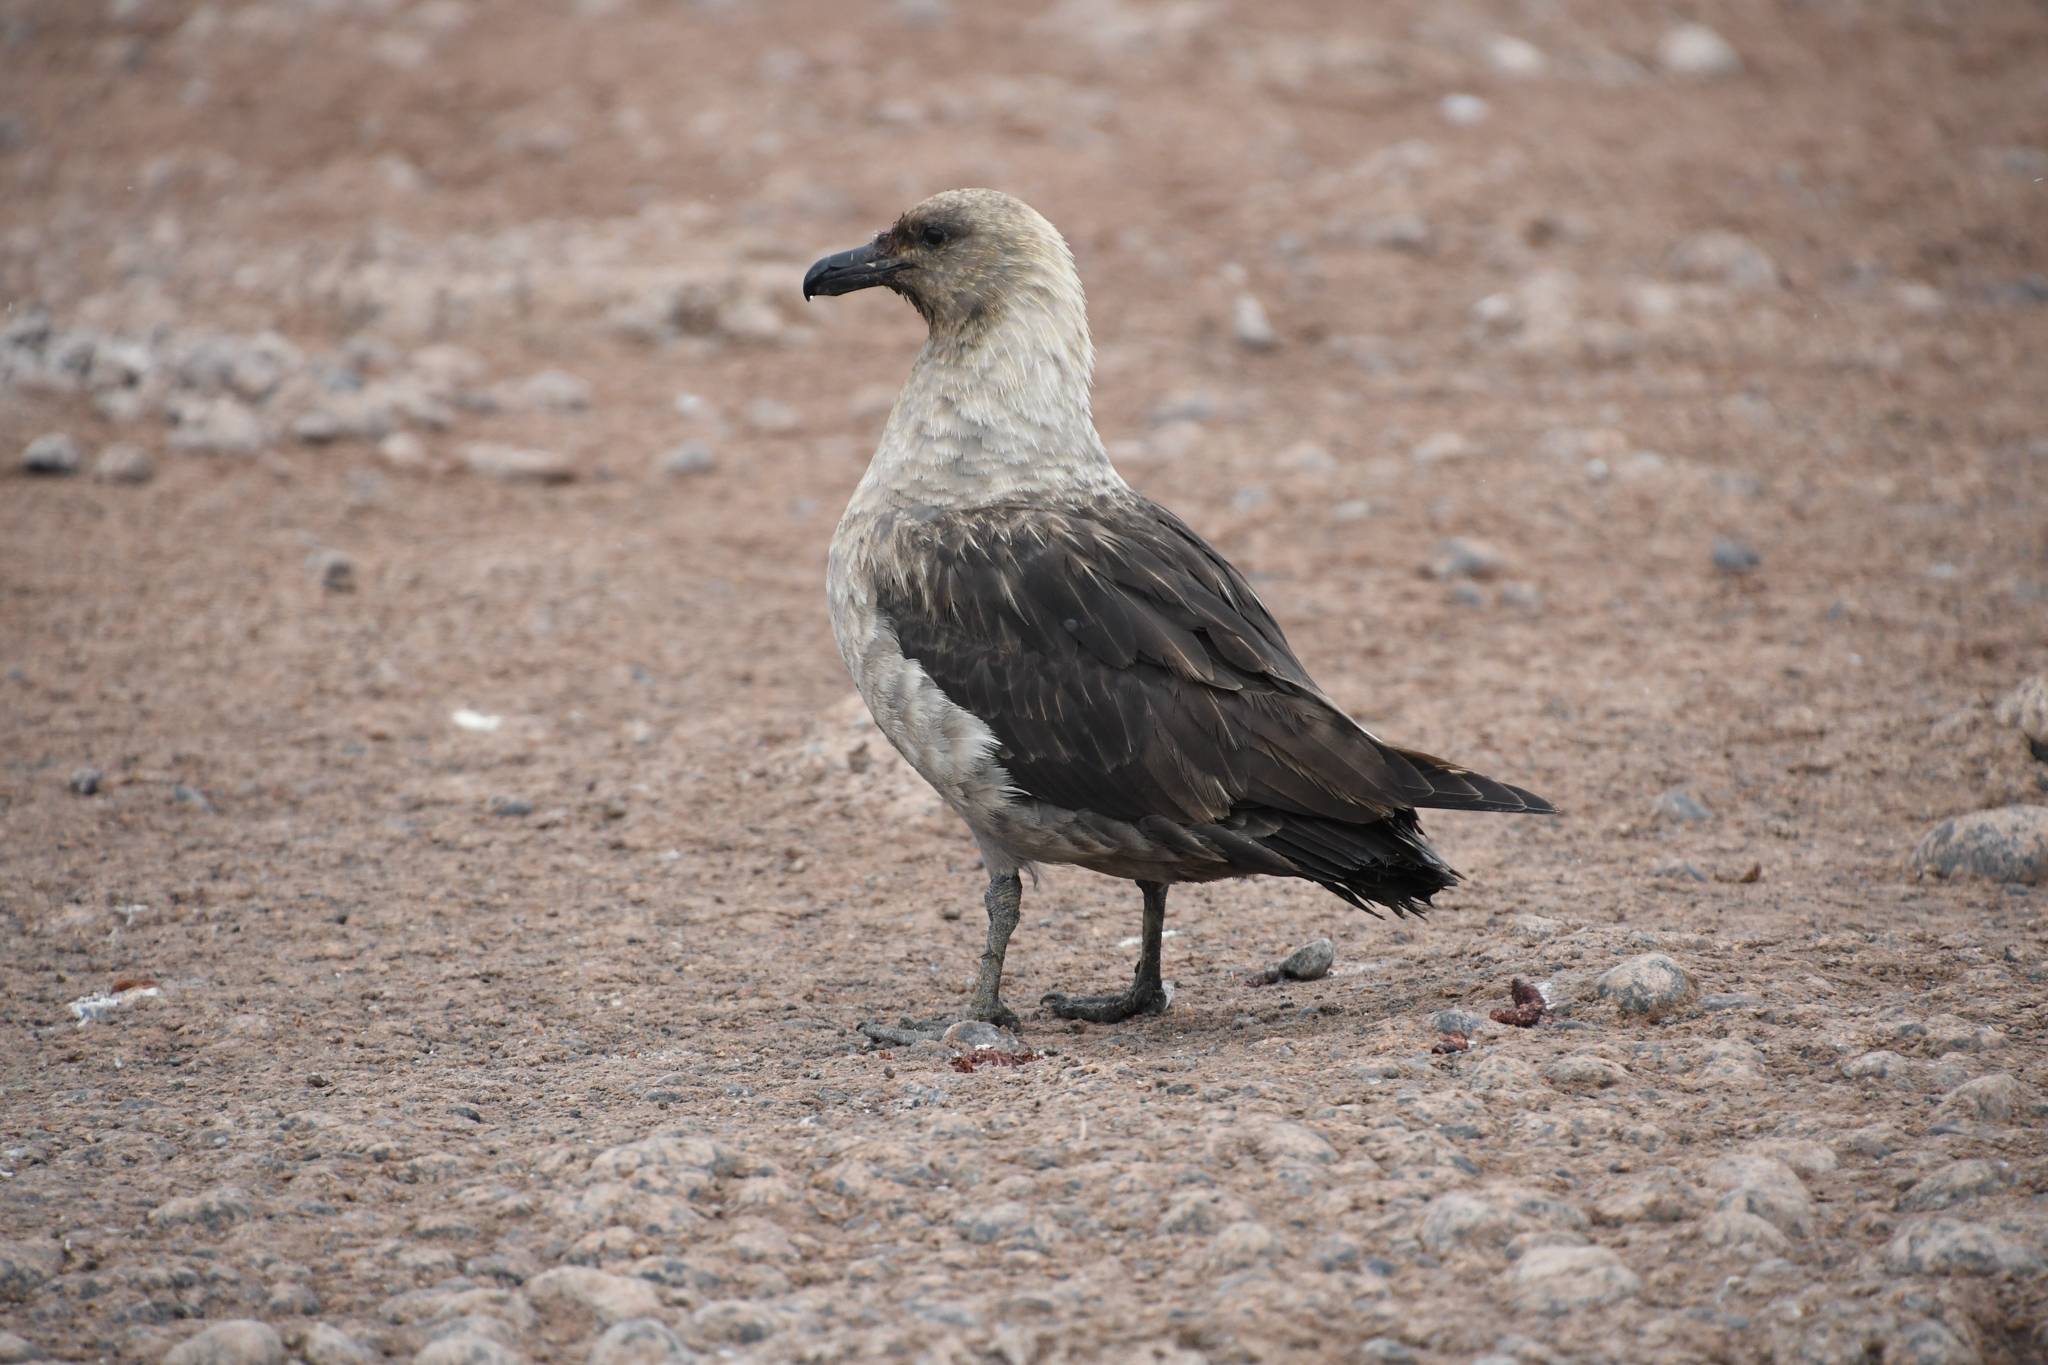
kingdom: Animalia
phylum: Chordata
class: Aves
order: Charadriiformes
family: Stercorariidae
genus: Stercorarius
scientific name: Stercorarius maccormicki
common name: South polar skua
